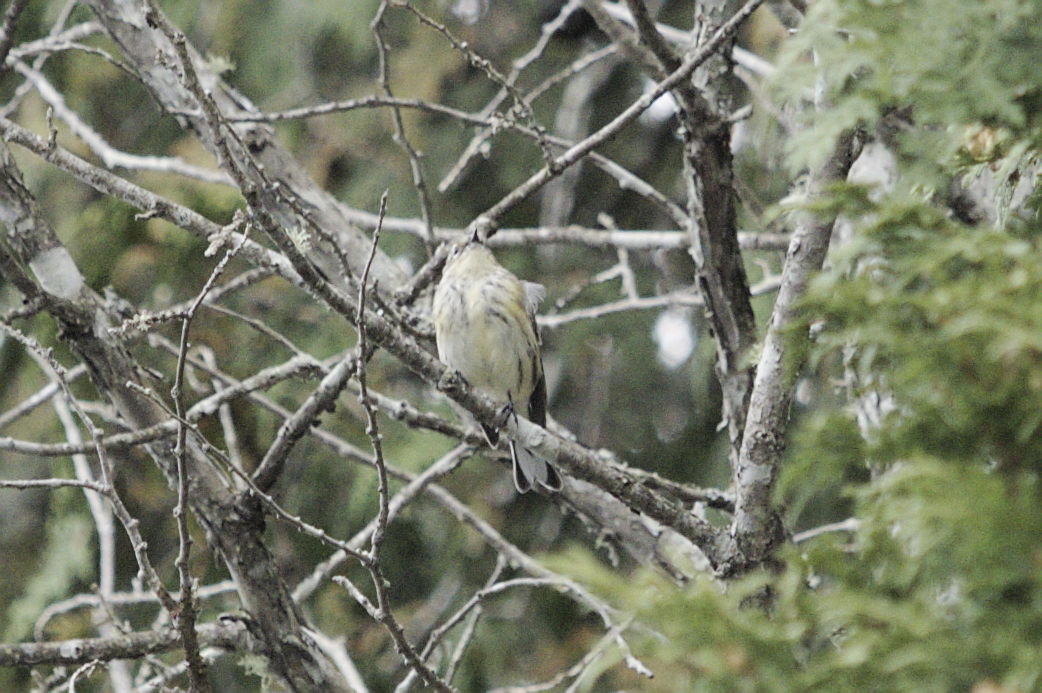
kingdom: Animalia
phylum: Chordata
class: Aves
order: Passeriformes
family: Parulidae
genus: Setophaga
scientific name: Setophaga coronata
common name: Myrtle warbler
